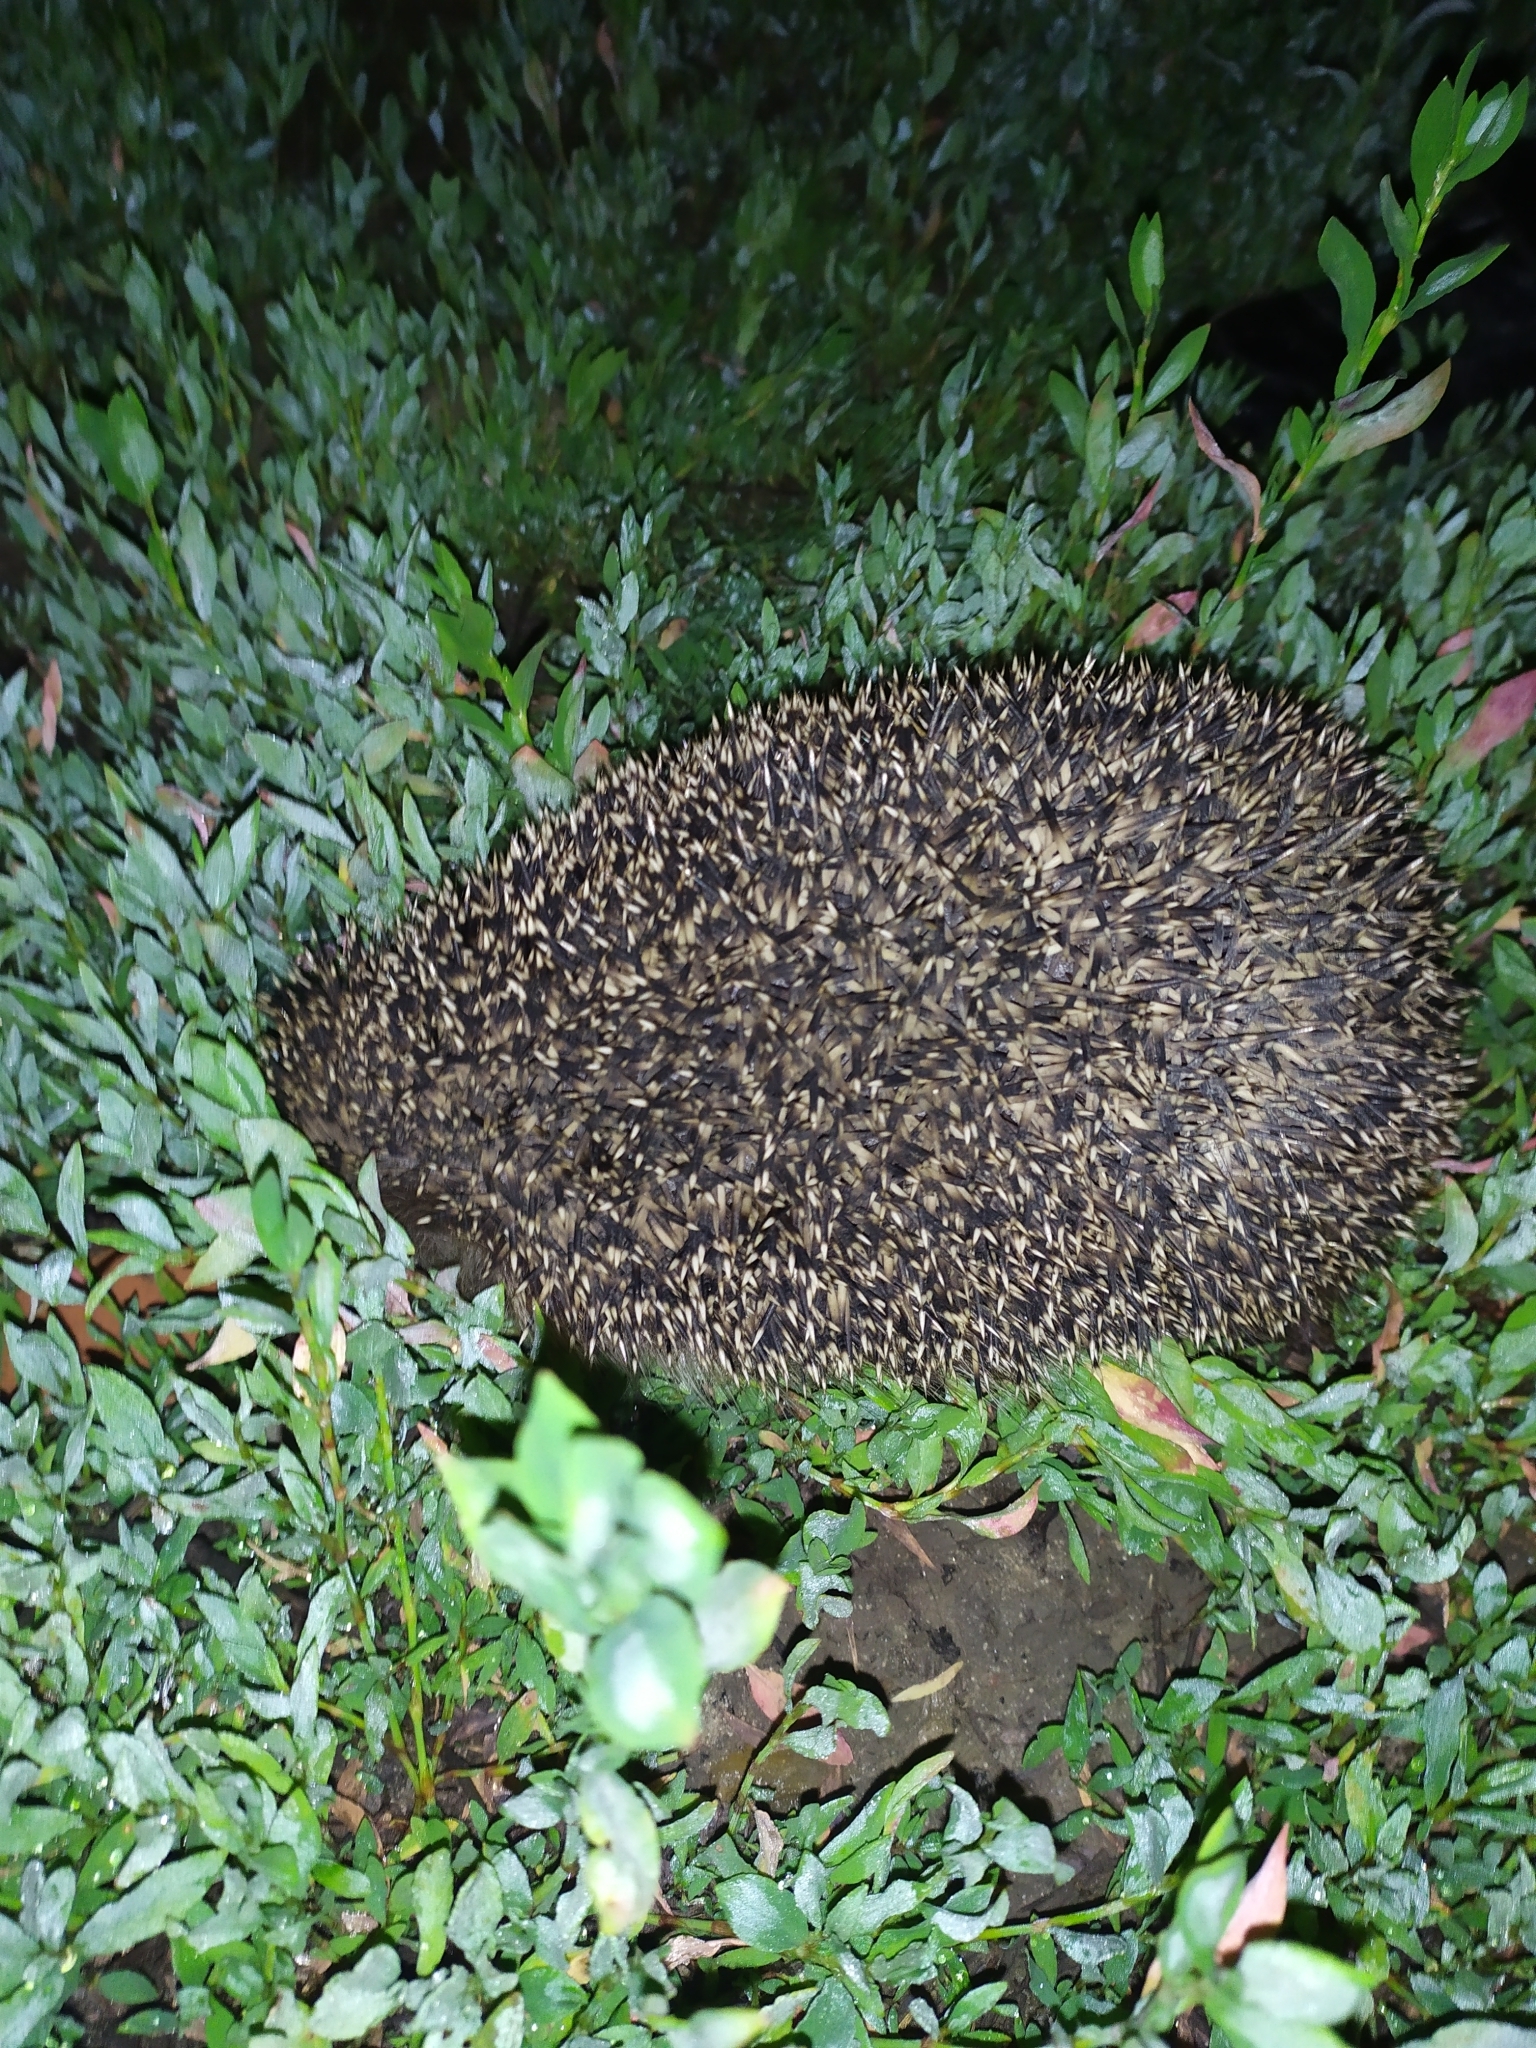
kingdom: Animalia
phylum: Chordata
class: Mammalia
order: Erinaceomorpha
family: Erinaceidae
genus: Erinaceus
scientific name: Erinaceus roumanicus
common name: Northern white-breasted hedgehog
